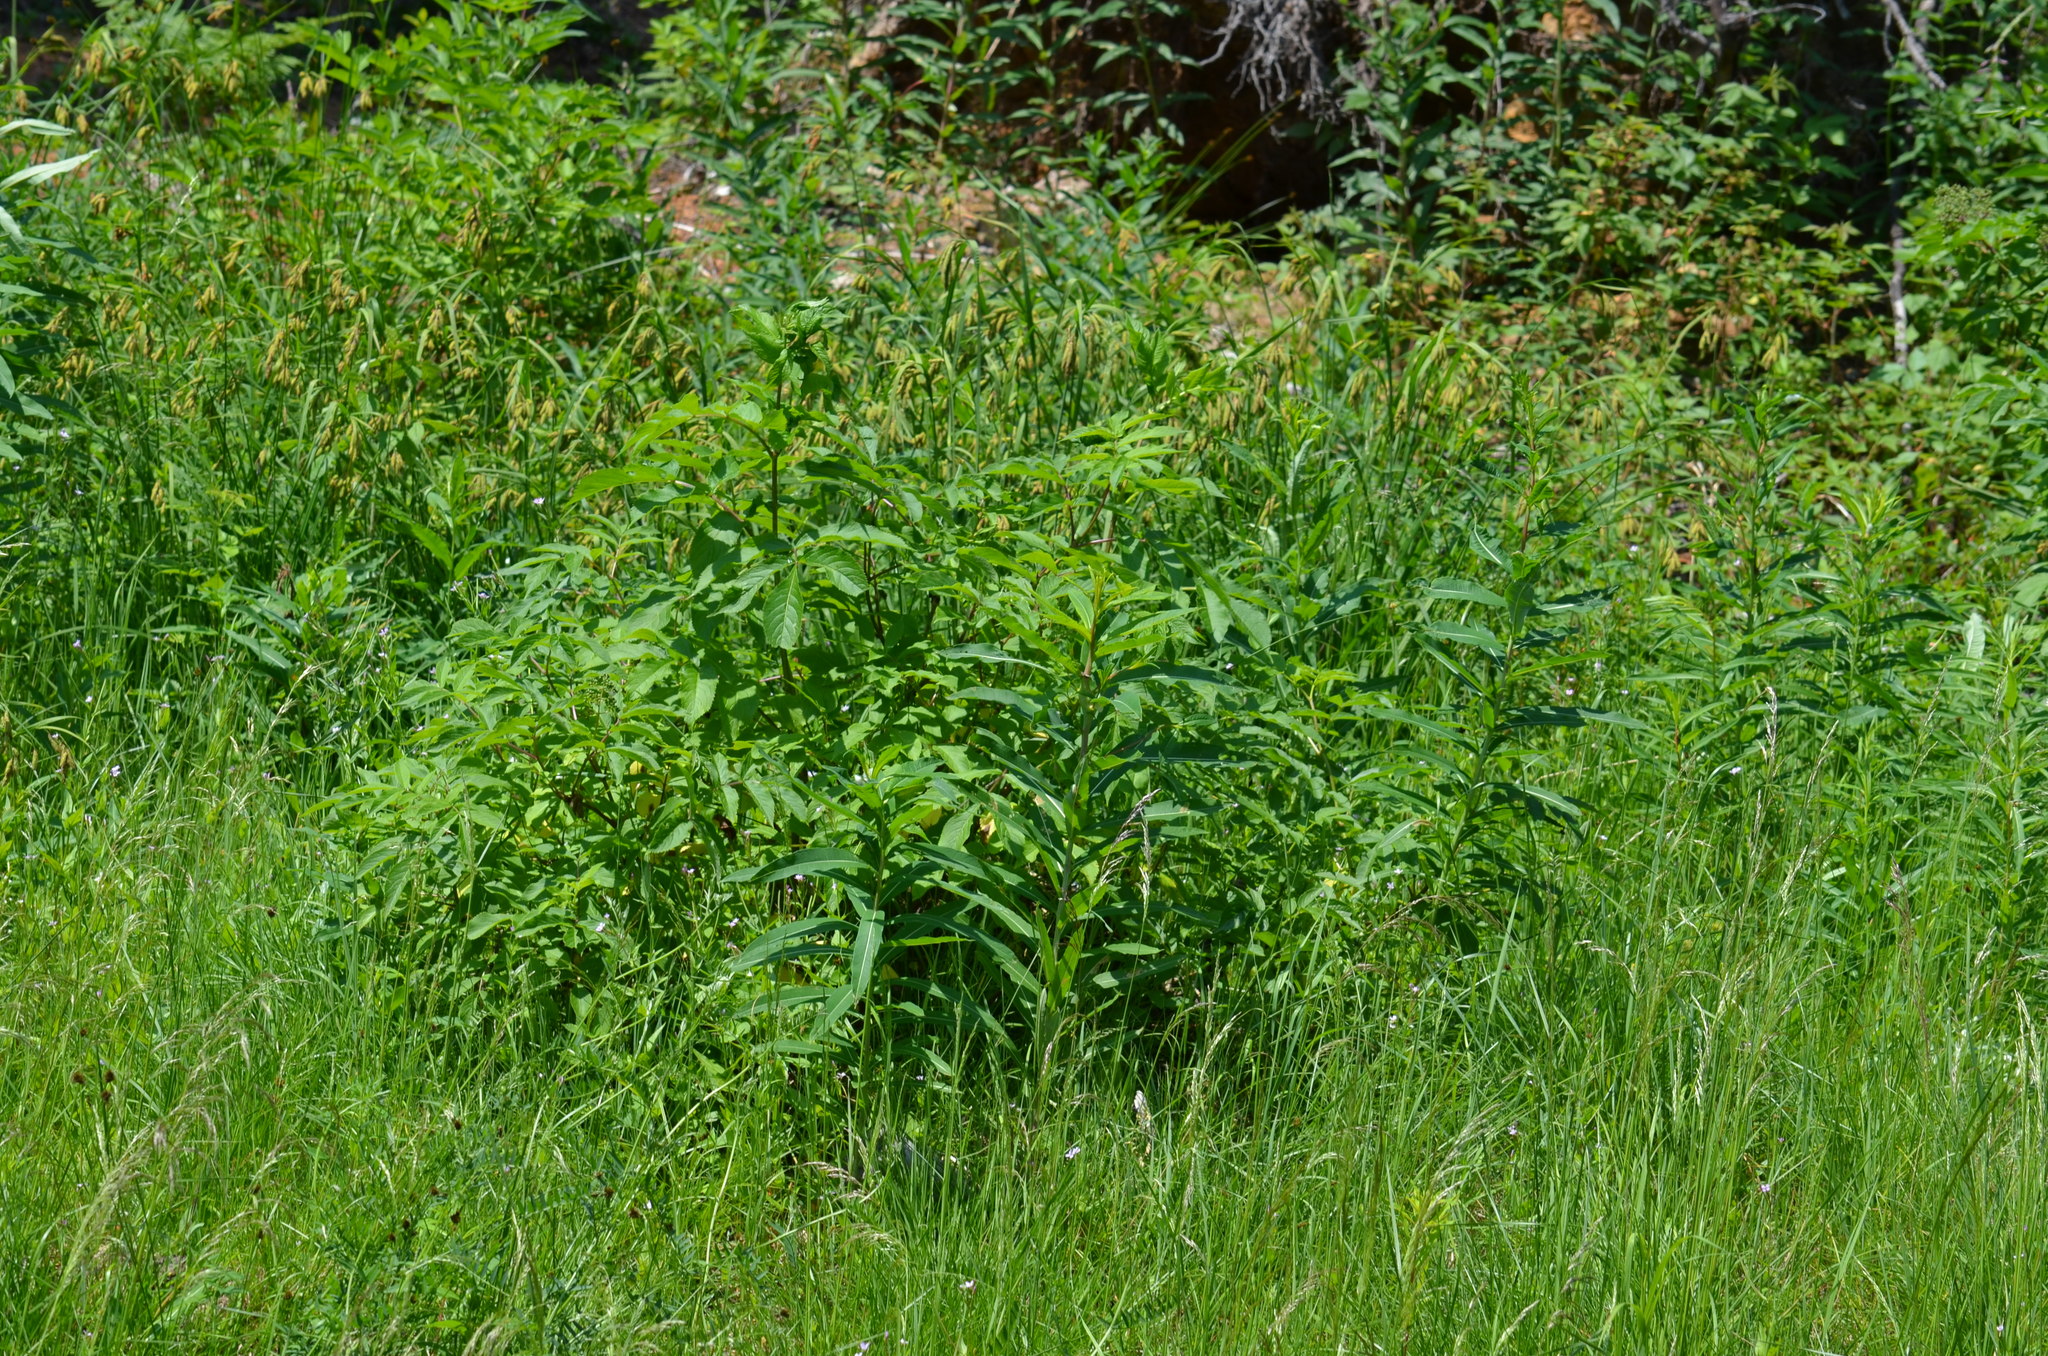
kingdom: Plantae
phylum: Tracheophyta
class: Magnoliopsida
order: Myrtales
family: Onagraceae
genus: Chamaenerion
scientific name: Chamaenerion angustifolium
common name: Fireweed
